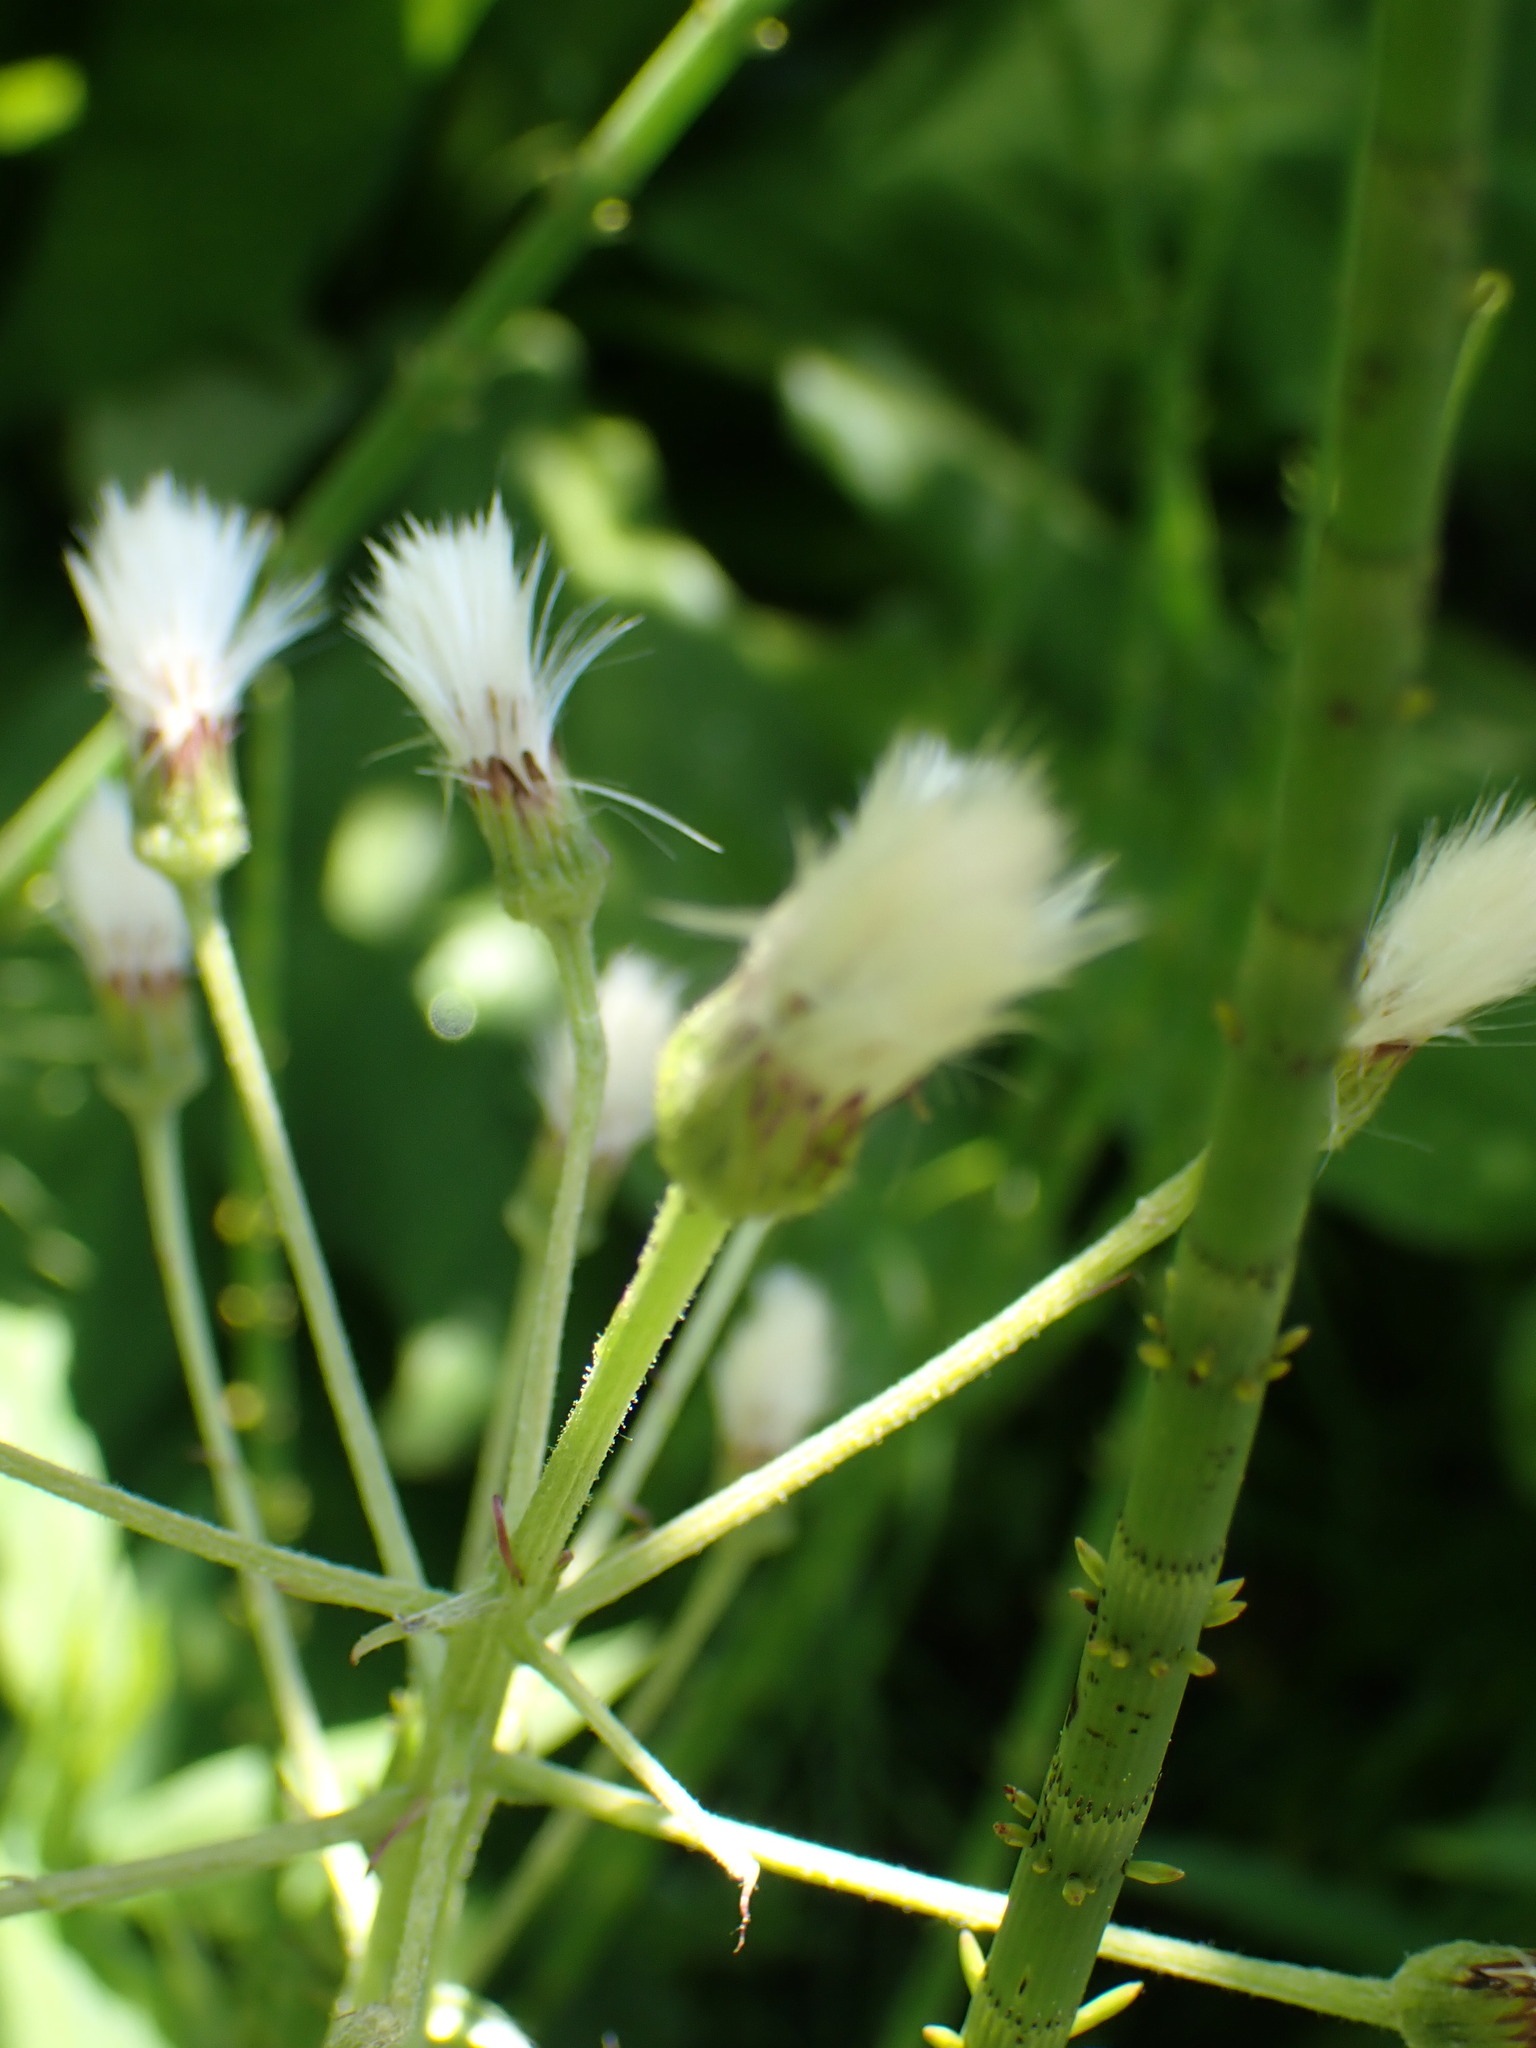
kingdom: Plantae
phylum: Tracheophyta
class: Magnoliopsida
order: Asterales
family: Asteraceae
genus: Petasites
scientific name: Petasites frigidus
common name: Arctic butterbur
